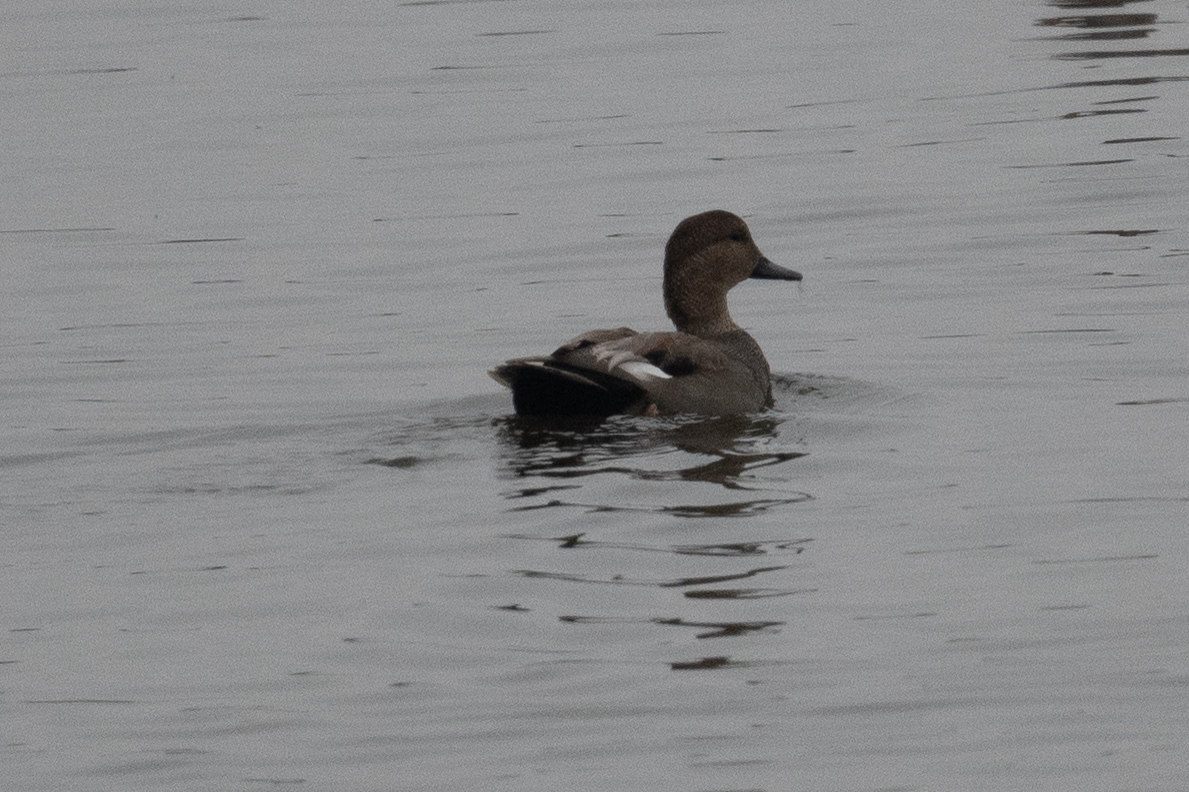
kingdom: Animalia
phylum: Chordata
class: Aves
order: Anseriformes
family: Anatidae
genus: Mareca
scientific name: Mareca strepera
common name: Gadwall
